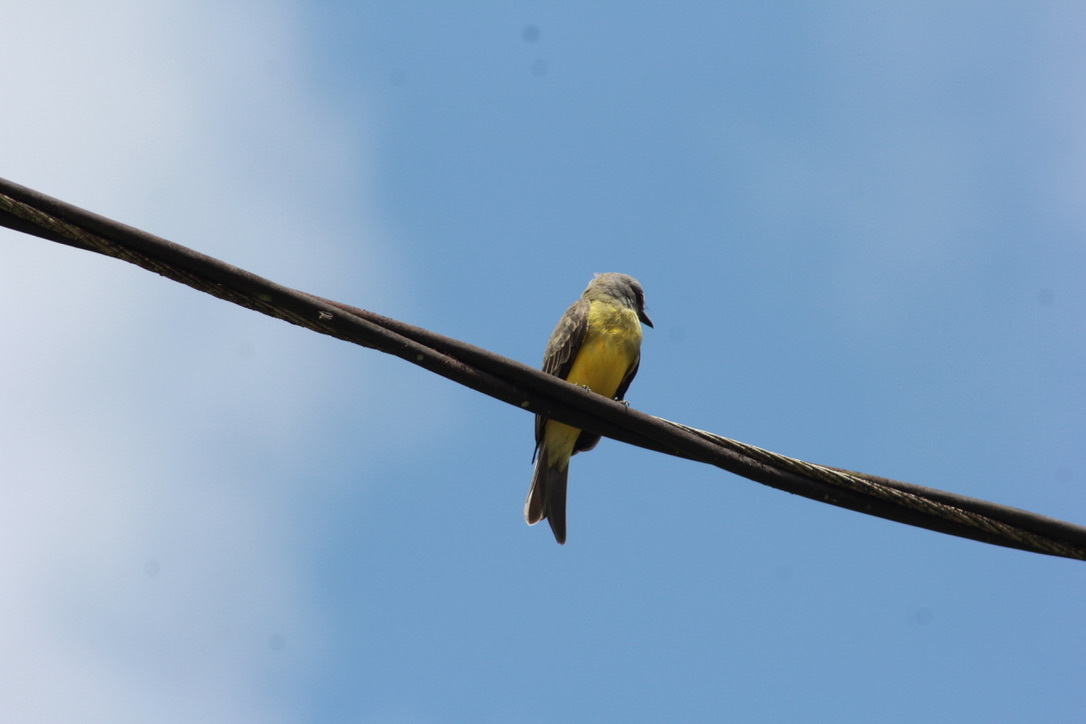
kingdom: Animalia
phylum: Chordata
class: Aves
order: Passeriformes
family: Tyrannidae
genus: Tyrannus
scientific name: Tyrannus melancholicus
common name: Tropical kingbird
